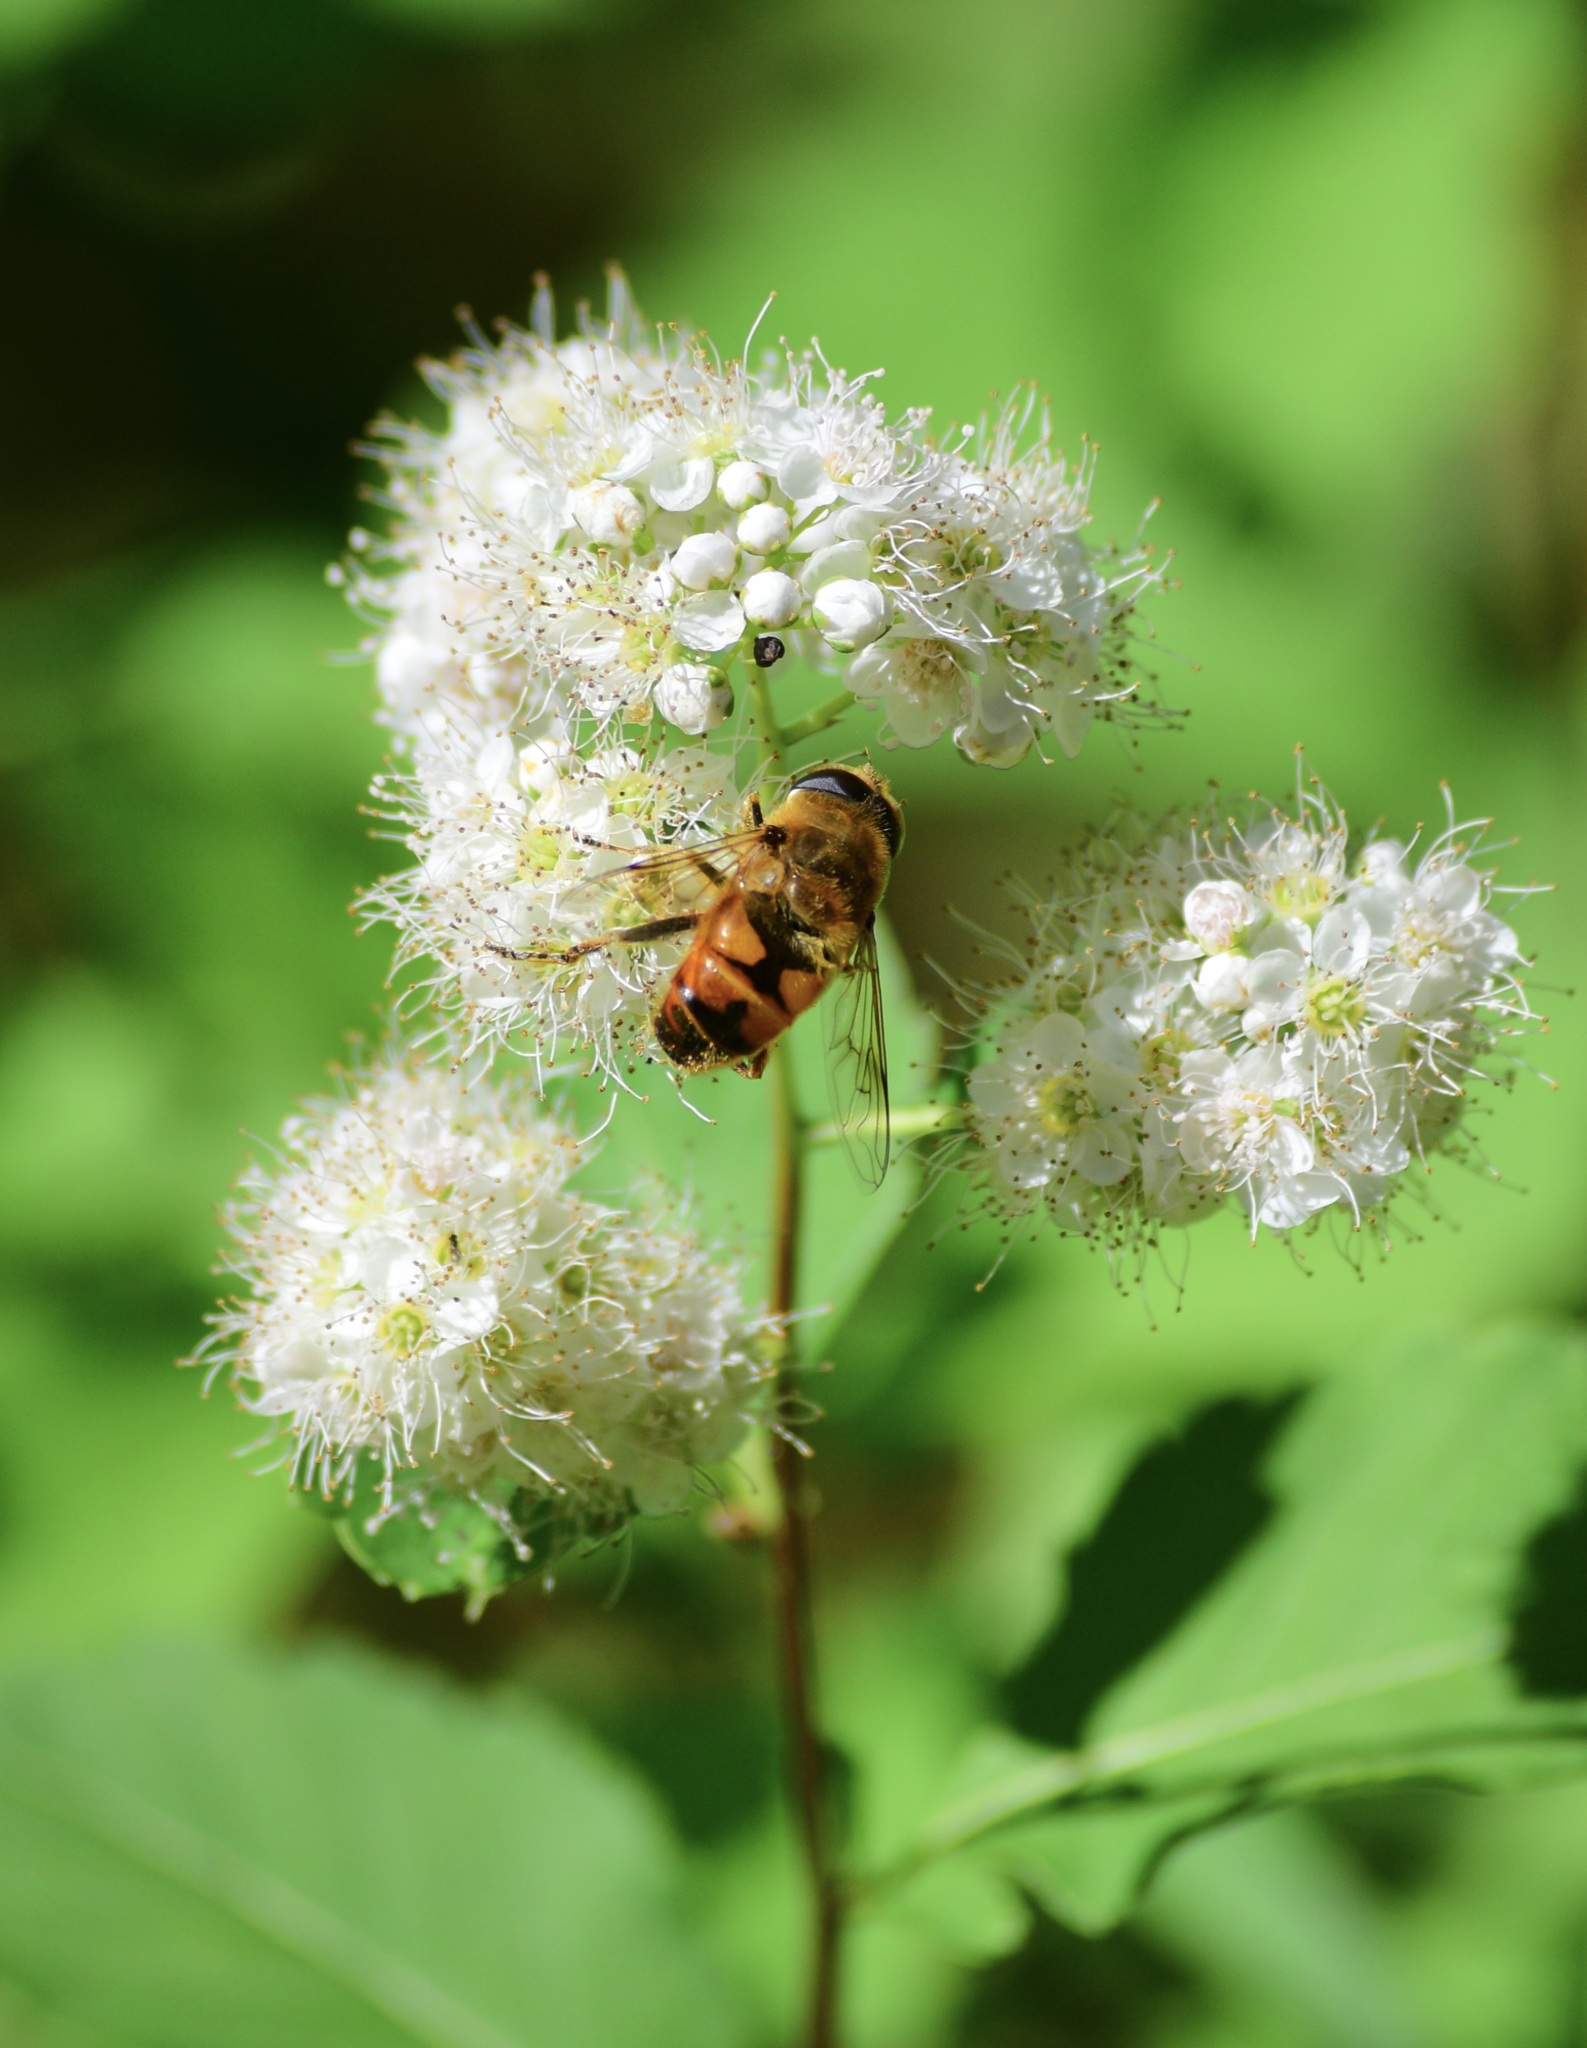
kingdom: Animalia
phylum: Arthropoda
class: Insecta
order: Diptera
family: Syrphidae
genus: Eristalis
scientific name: Eristalis tenax
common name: Drone fly
